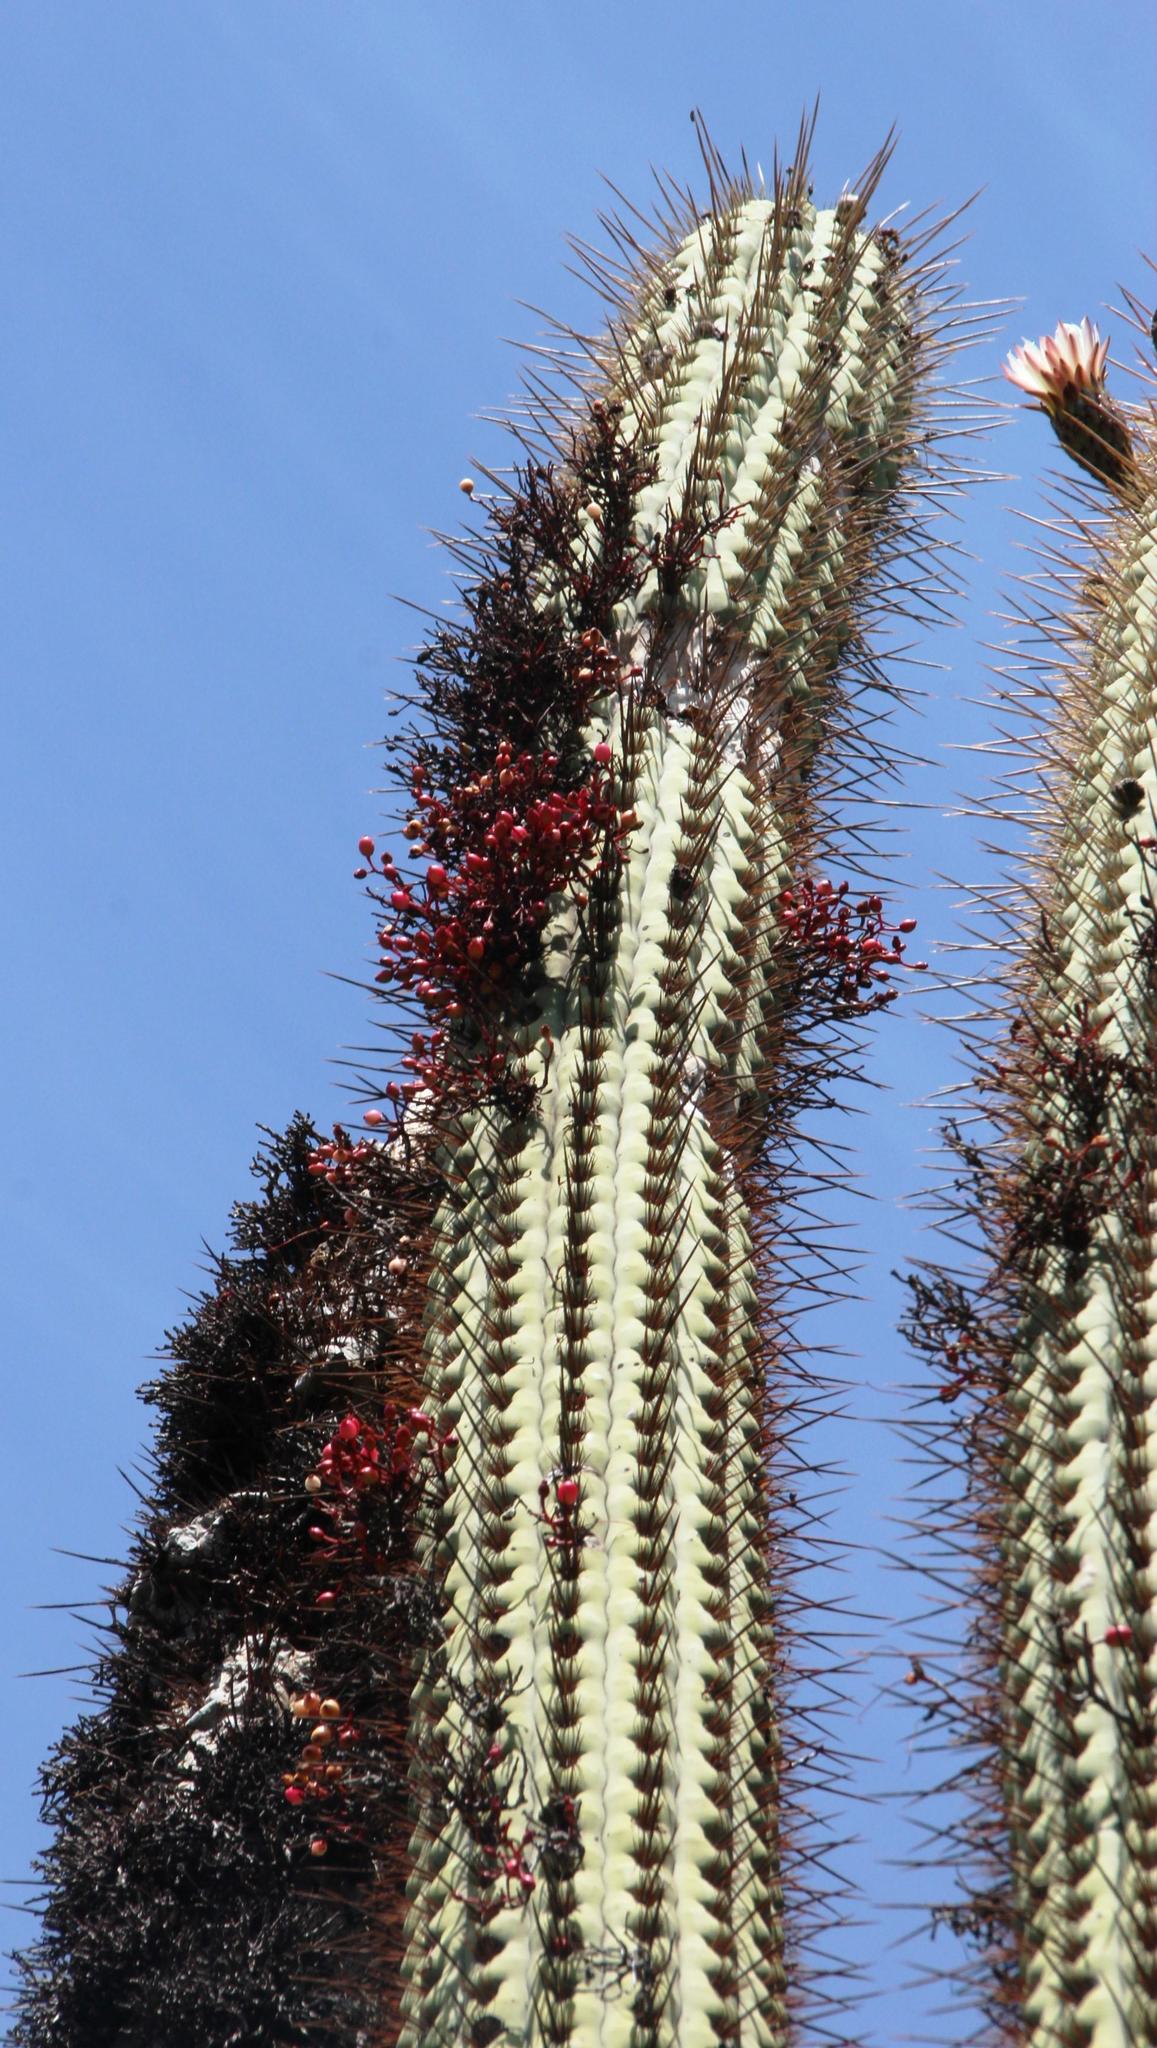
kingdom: Plantae
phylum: Tracheophyta
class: Magnoliopsida
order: Santalales
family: Loranthaceae
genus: Tristerix
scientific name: Tristerix aphyllus
